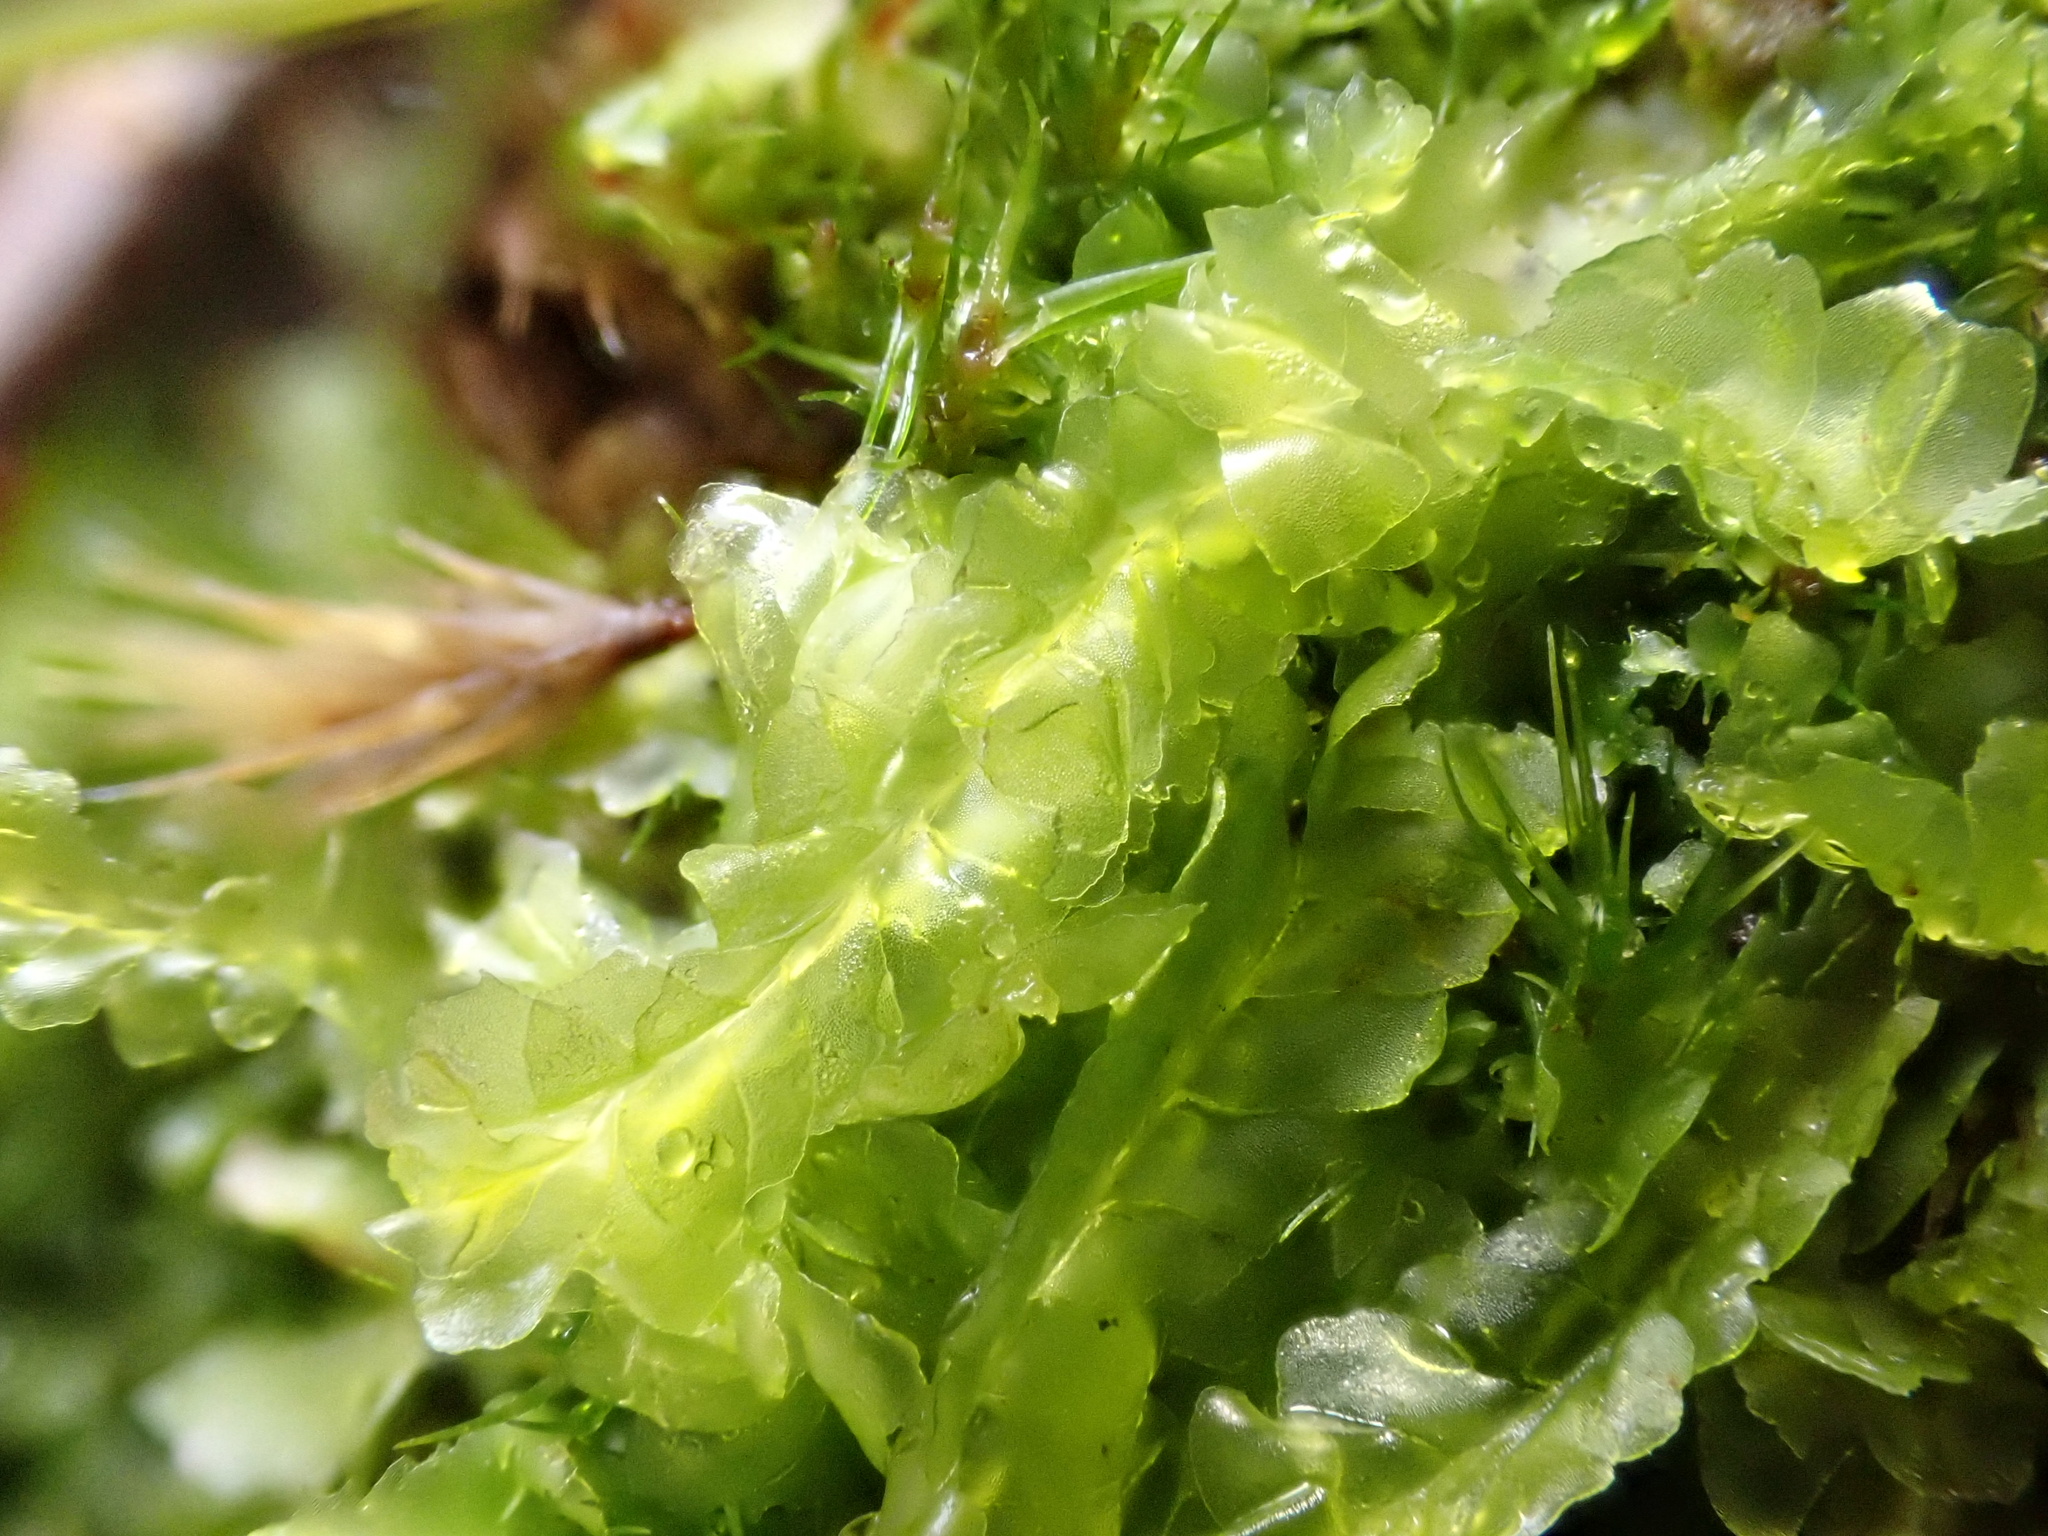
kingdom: Plantae
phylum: Marchantiophyta
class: Jungermanniopsida
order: Jungermanniales
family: Lophocoleaceae
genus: Lophocolea
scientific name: Lophocolea semiteres
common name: Southern crestwort
